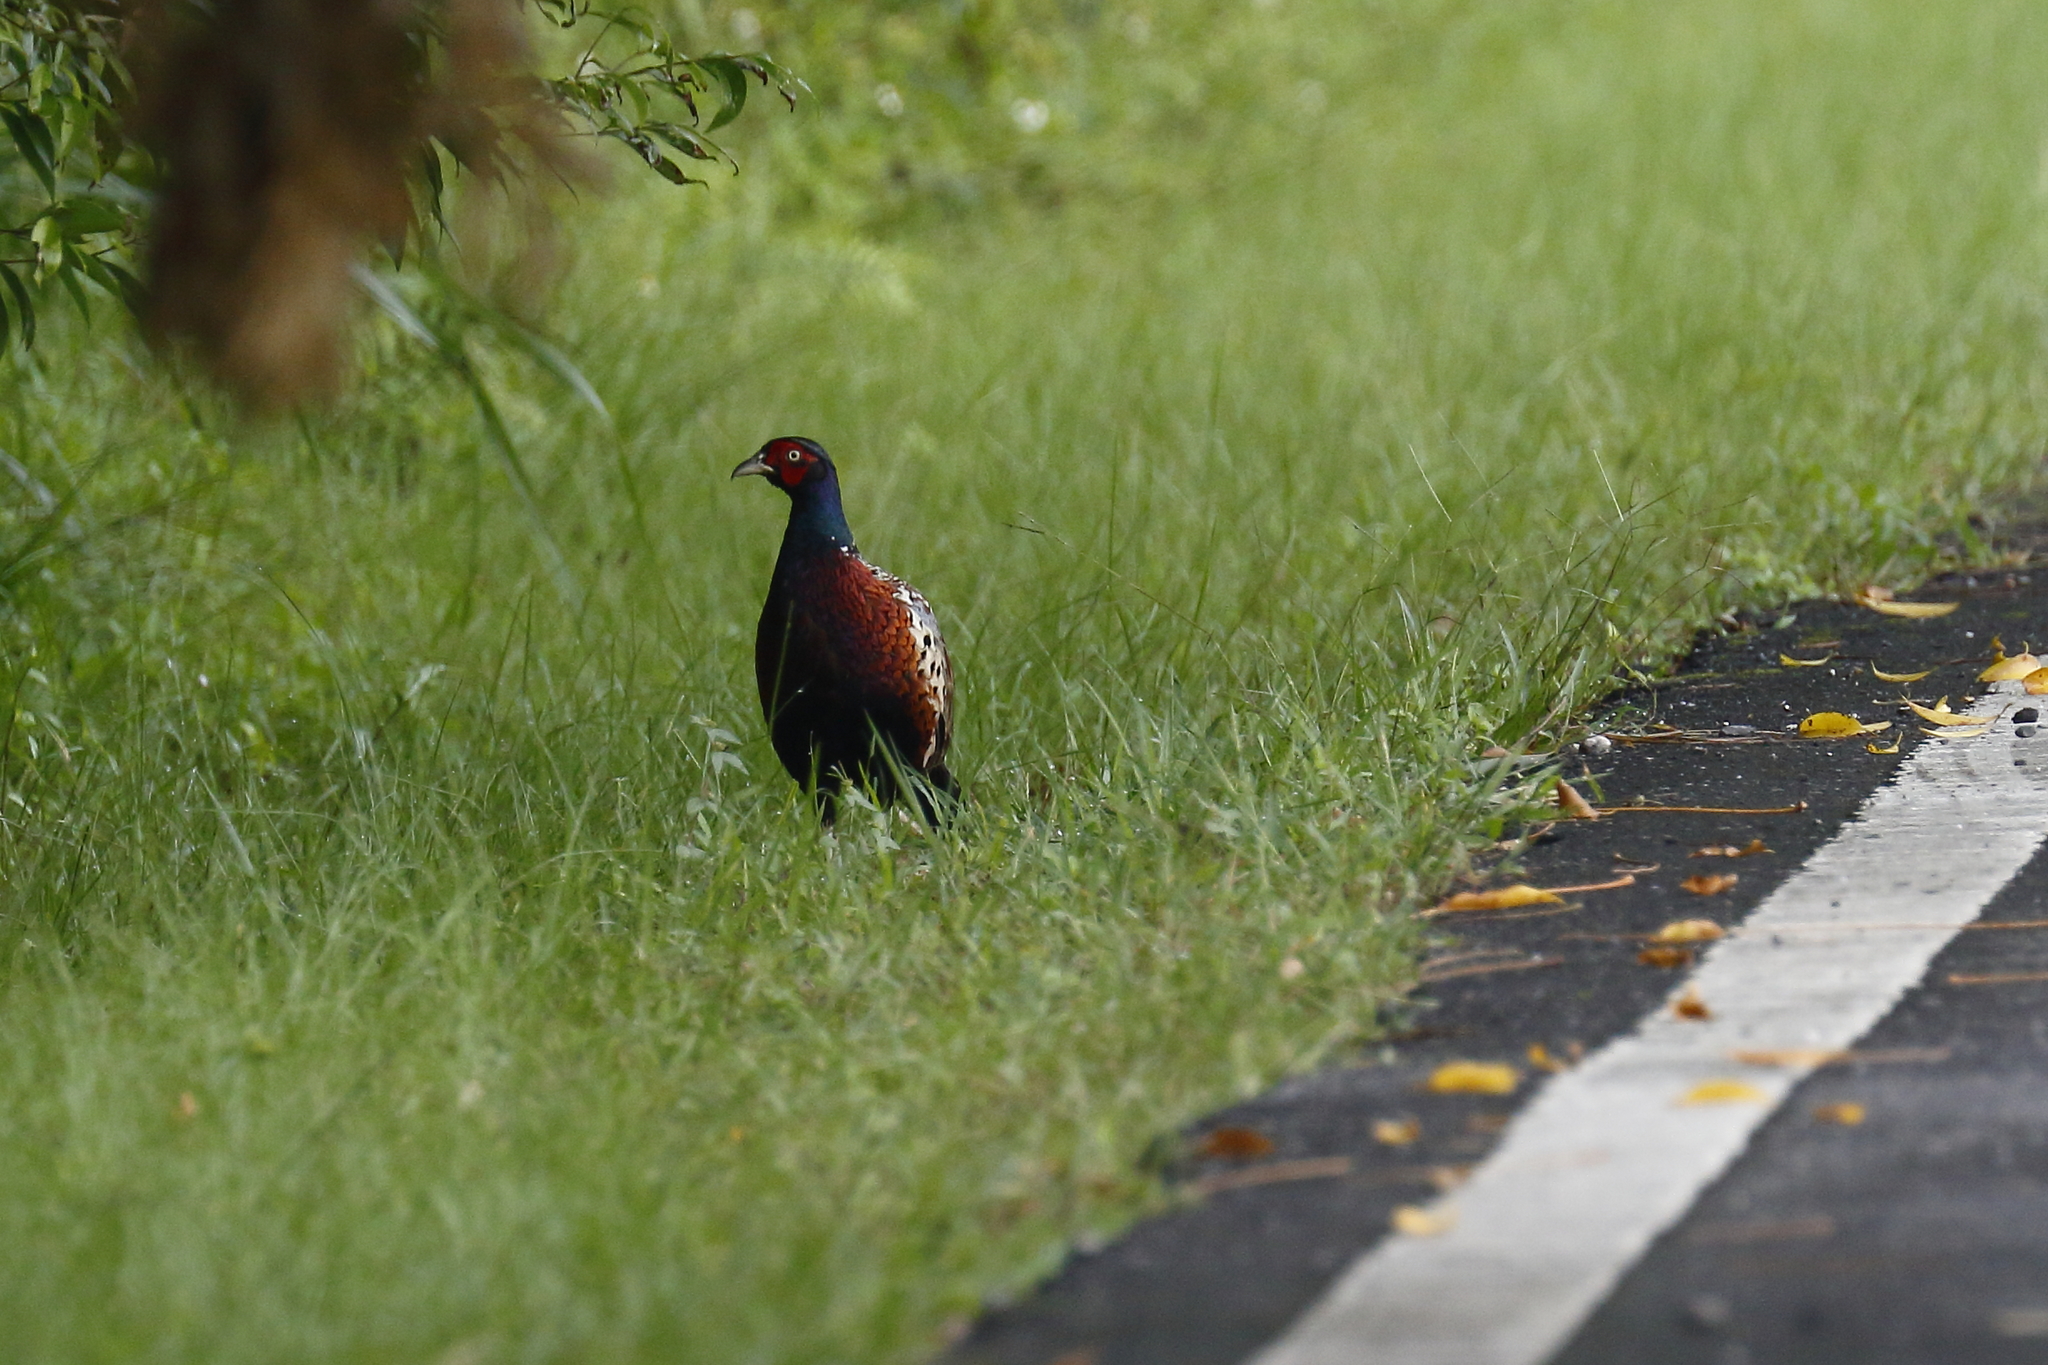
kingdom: Animalia
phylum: Chordata
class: Aves
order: Galliformes
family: Phasianidae
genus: Phasianus
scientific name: Phasianus colchicus
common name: Common pheasant
